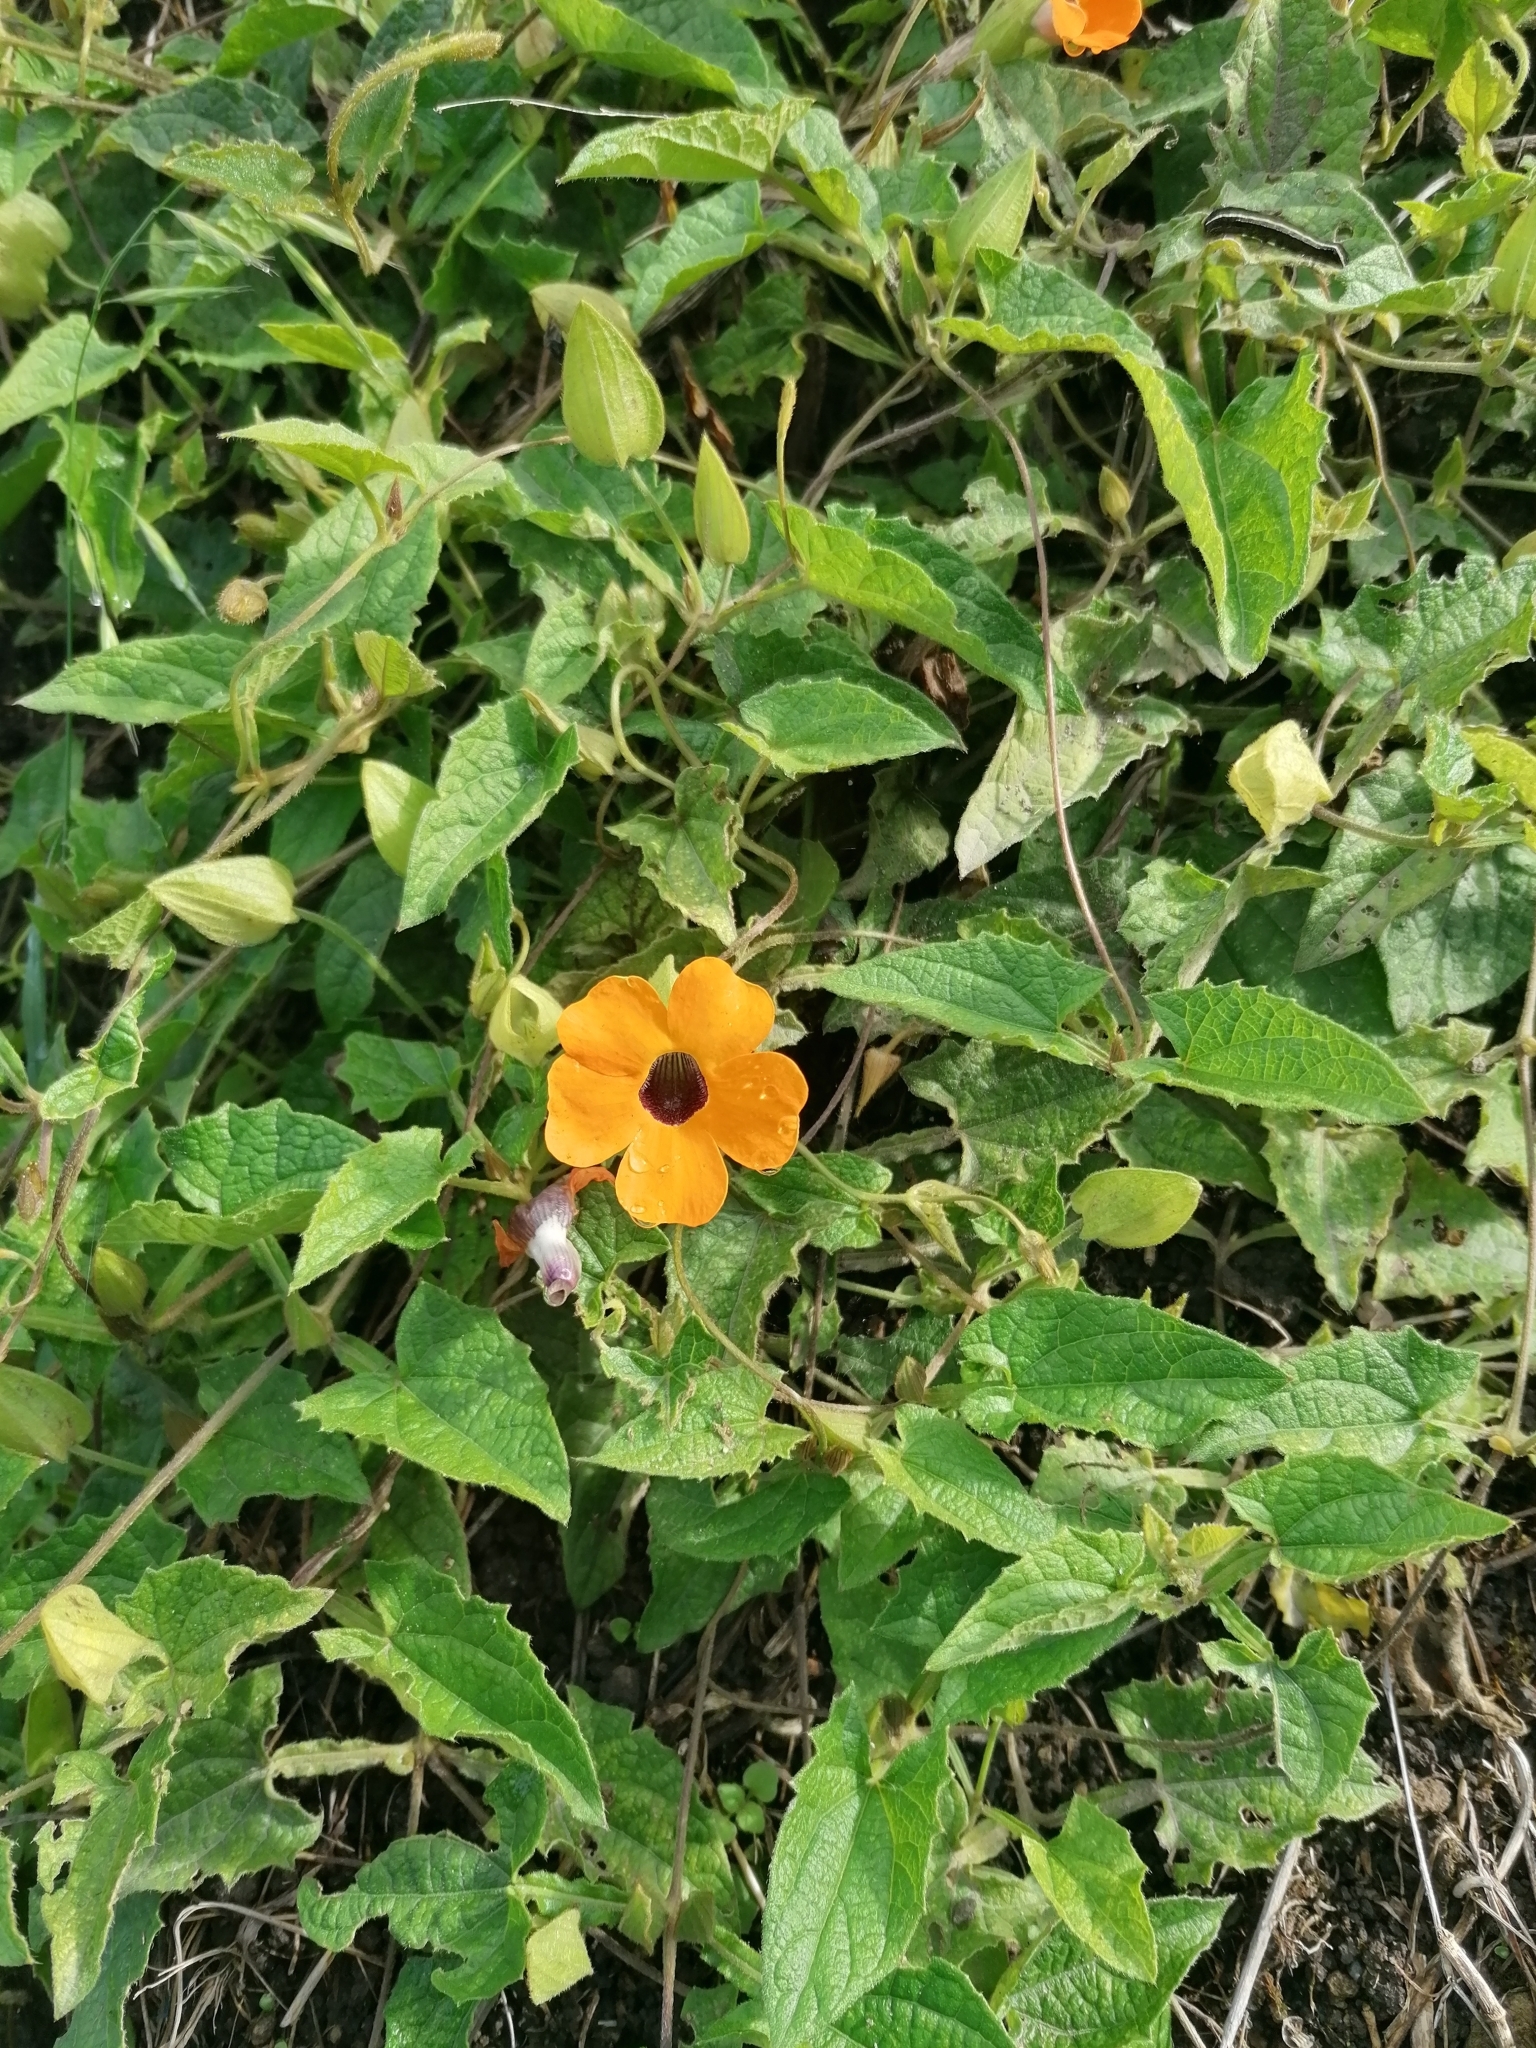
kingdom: Plantae
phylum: Tracheophyta
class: Magnoliopsida
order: Lamiales
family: Acanthaceae
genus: Thunbergia
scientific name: Thunbergia alata
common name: Blackeyed susan vine
